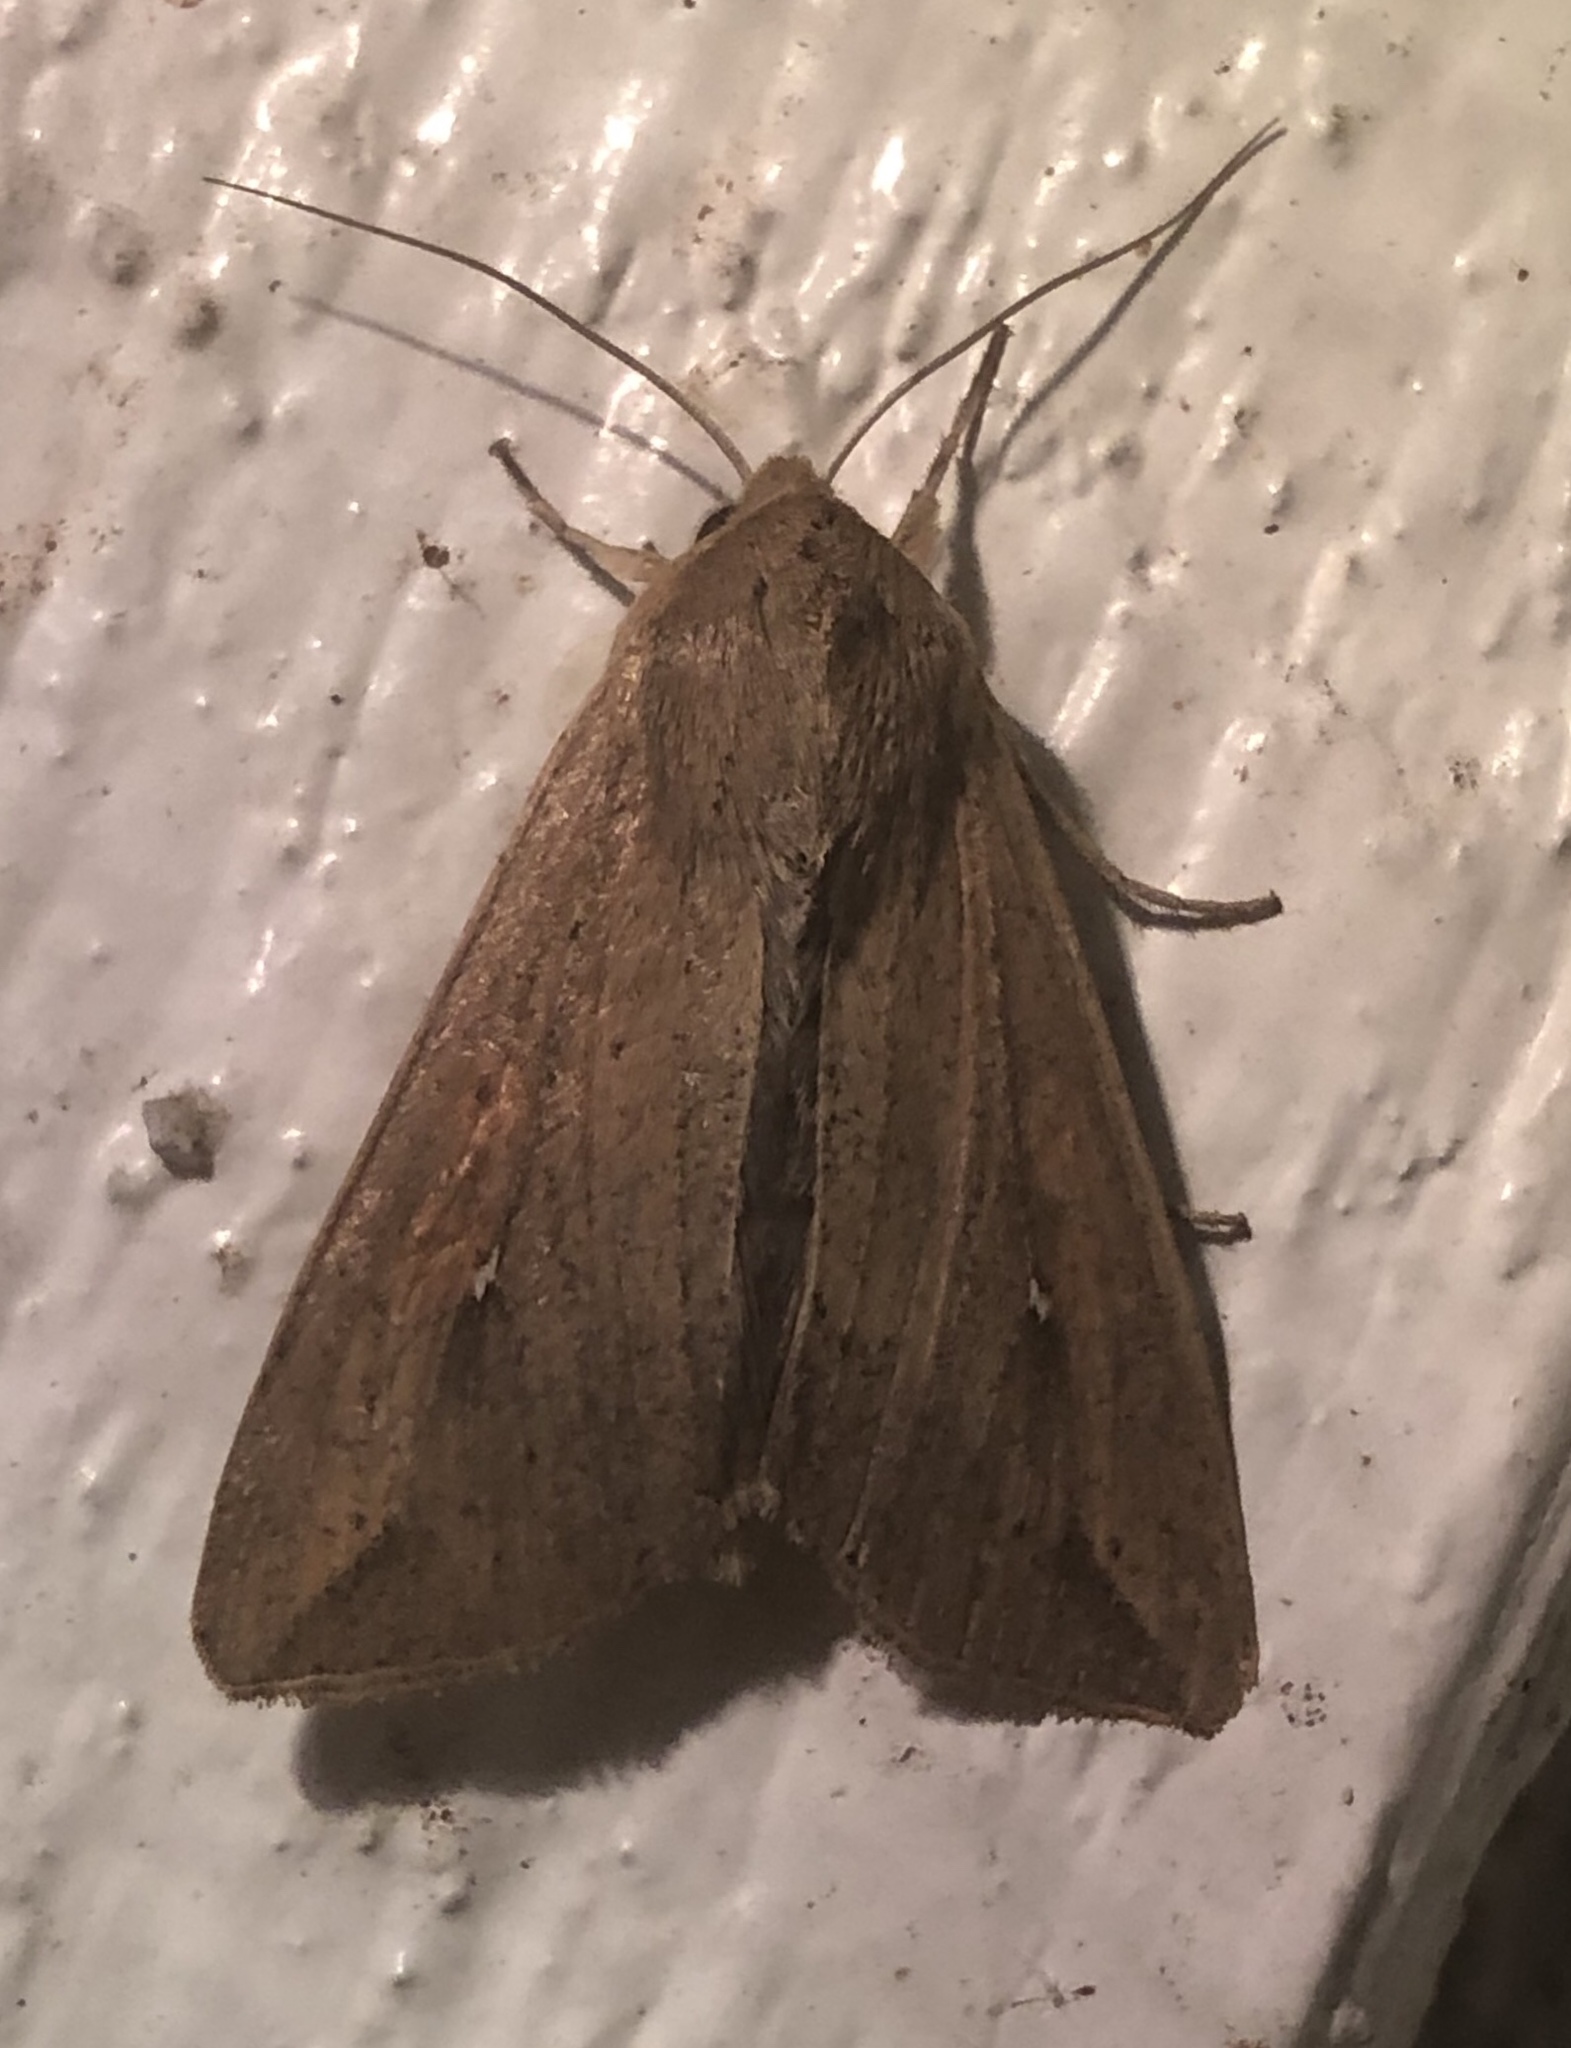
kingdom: Animalia
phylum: Arthropoda
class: Insecta
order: Lepidoptera
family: Noctuidae
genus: Mythimna
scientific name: Mythimna unipuncta
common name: White-speck
